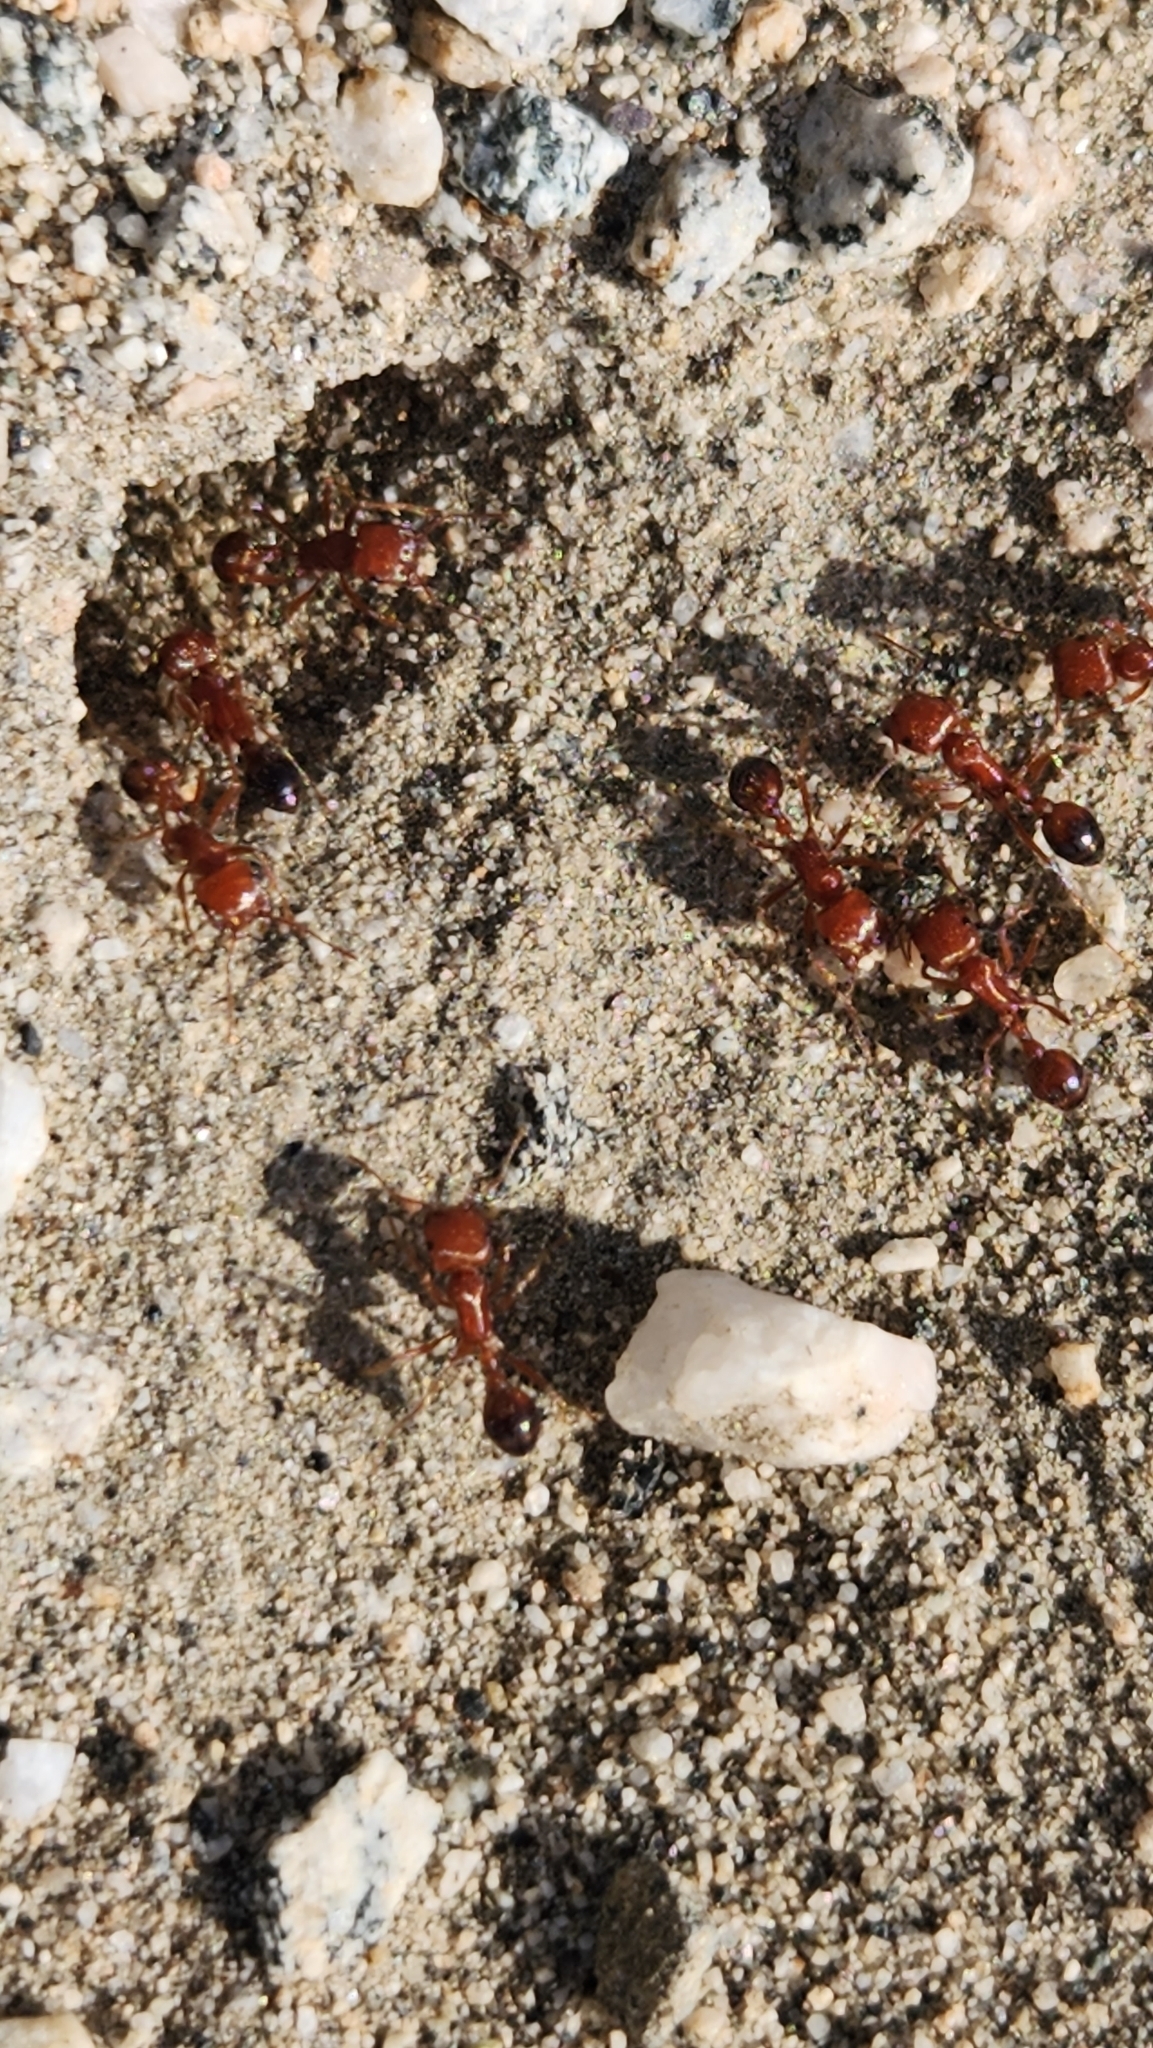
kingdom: Animalia
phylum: Arthropoda
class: Insecta
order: Hymenoptera
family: Formicidae
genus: Pogonomyrmex
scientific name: Pogonomyrmex californicus
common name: California harvester ant
